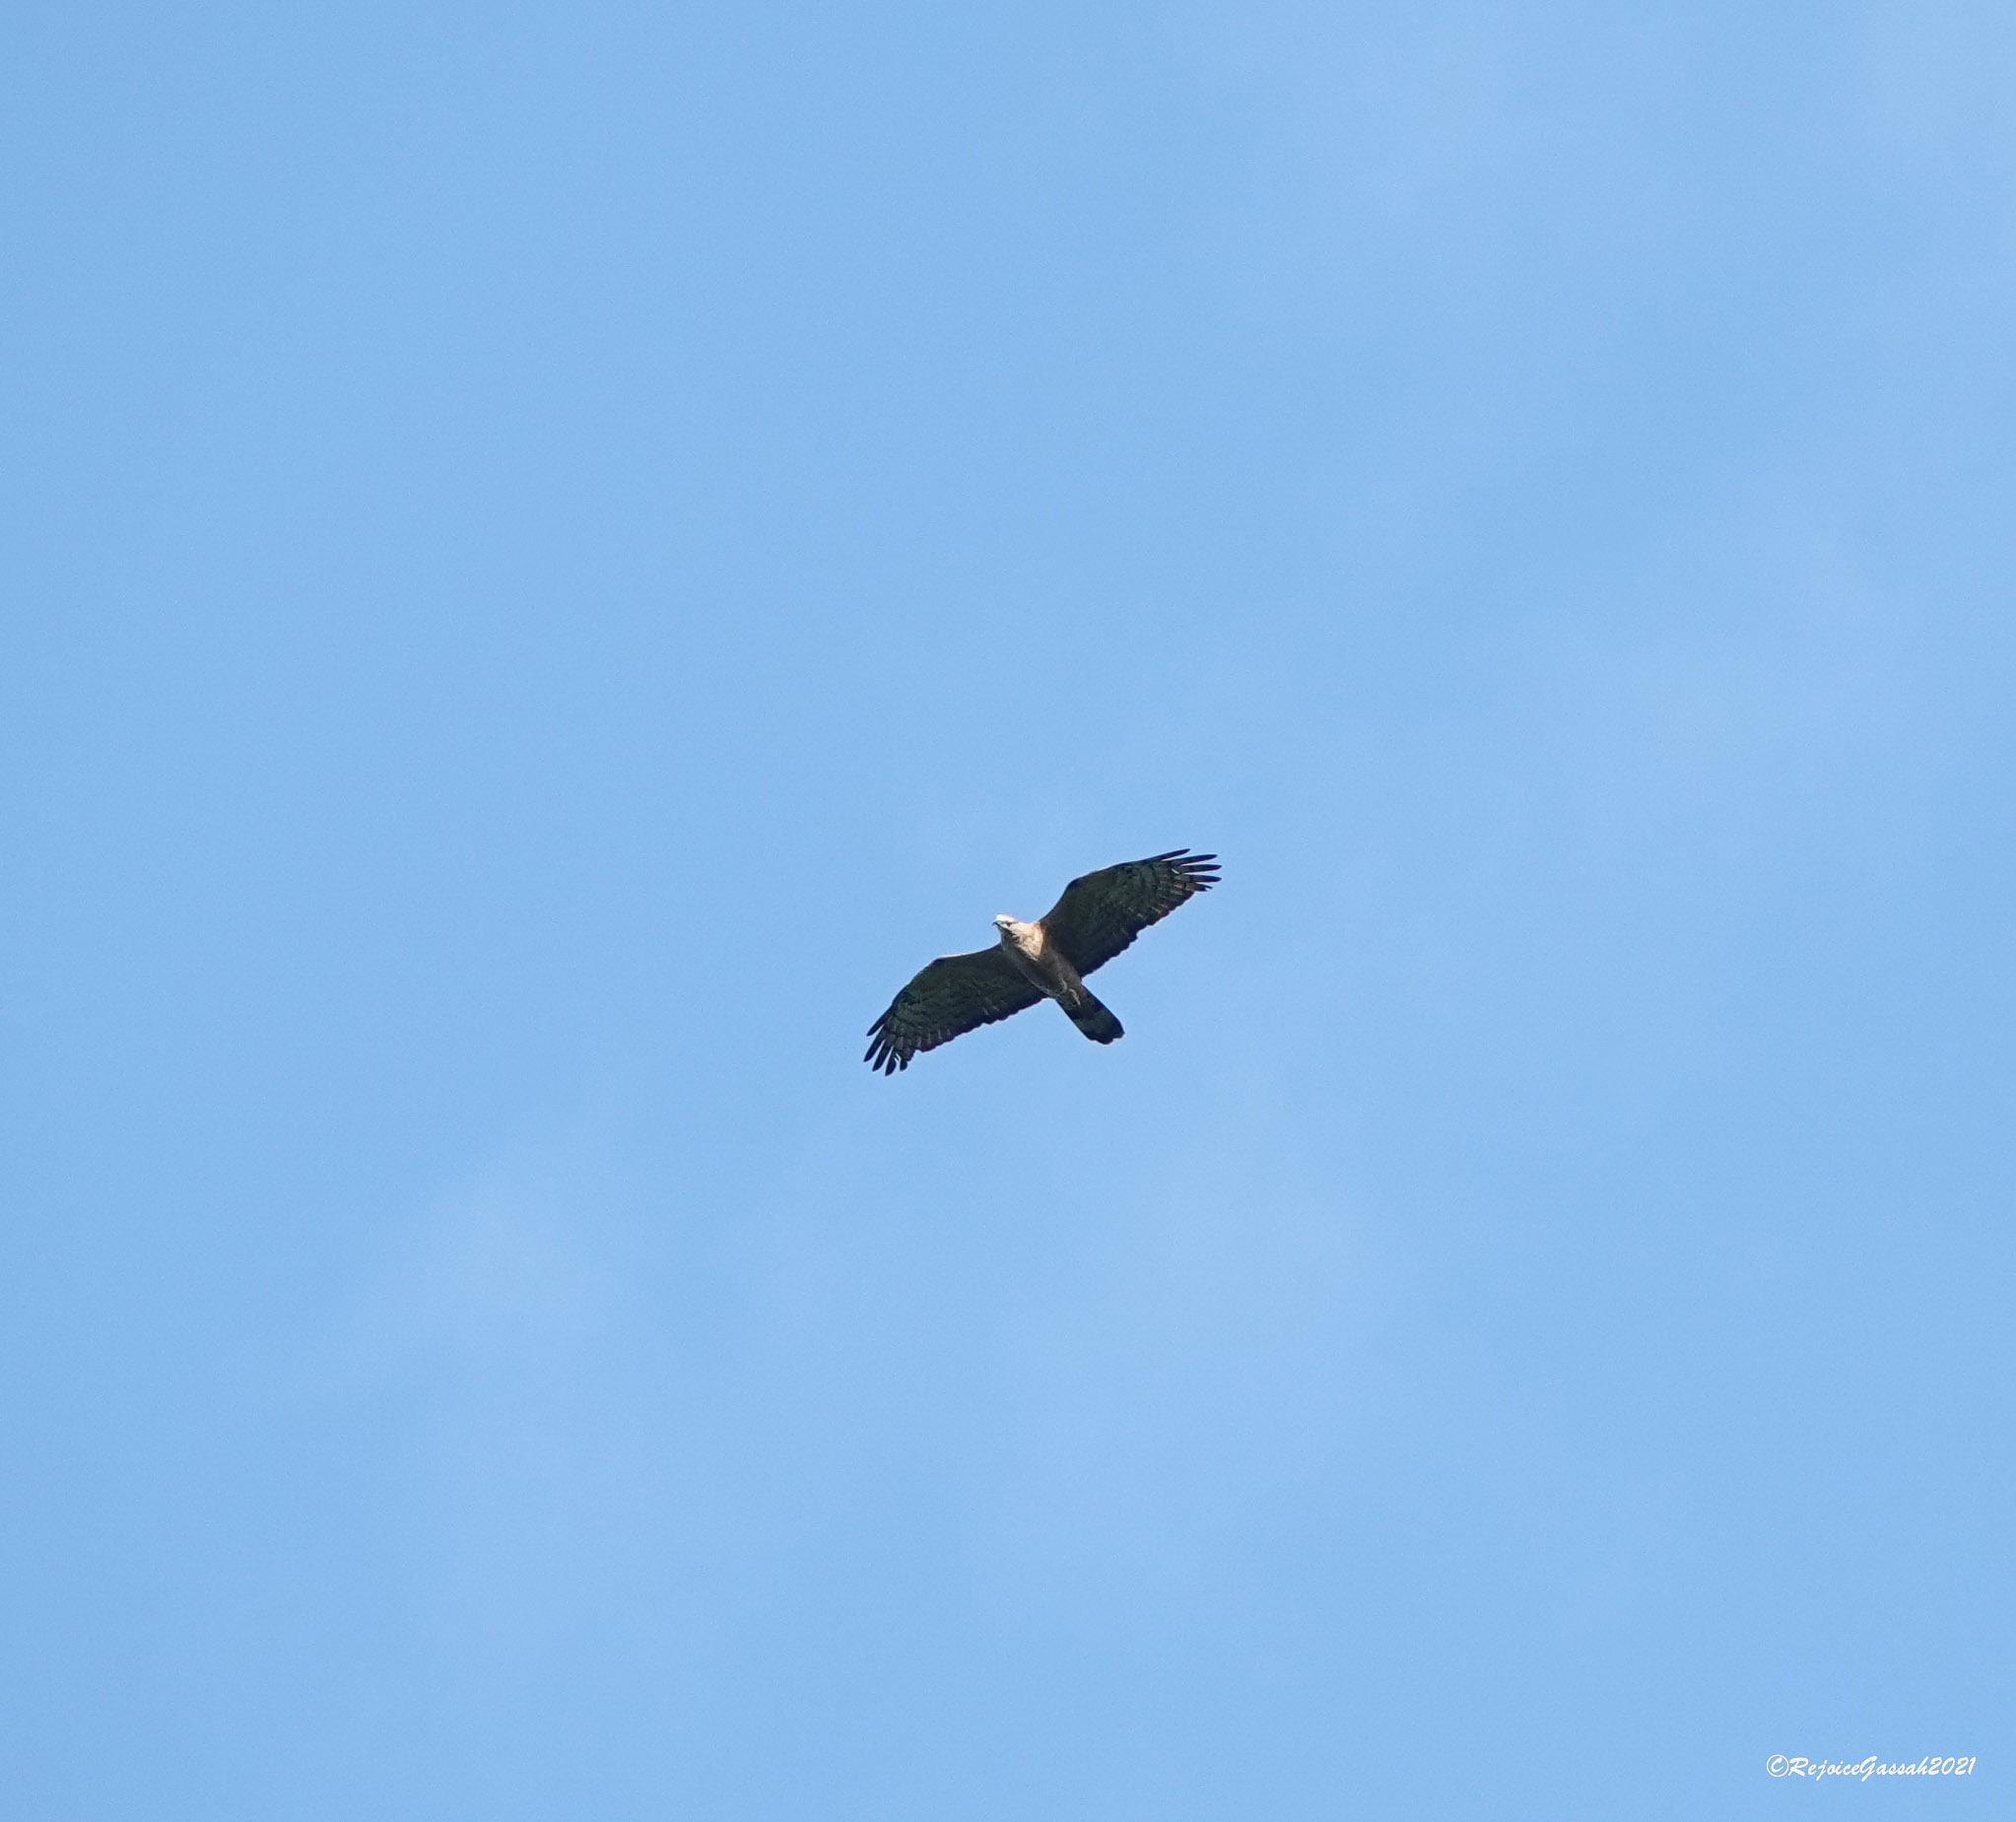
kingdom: Animalia
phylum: Chordata
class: Aves
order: Accipitriformes
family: Accipitridae
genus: Pernis
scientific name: Pernis ptilorhynchus
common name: Crested honey buzzard
